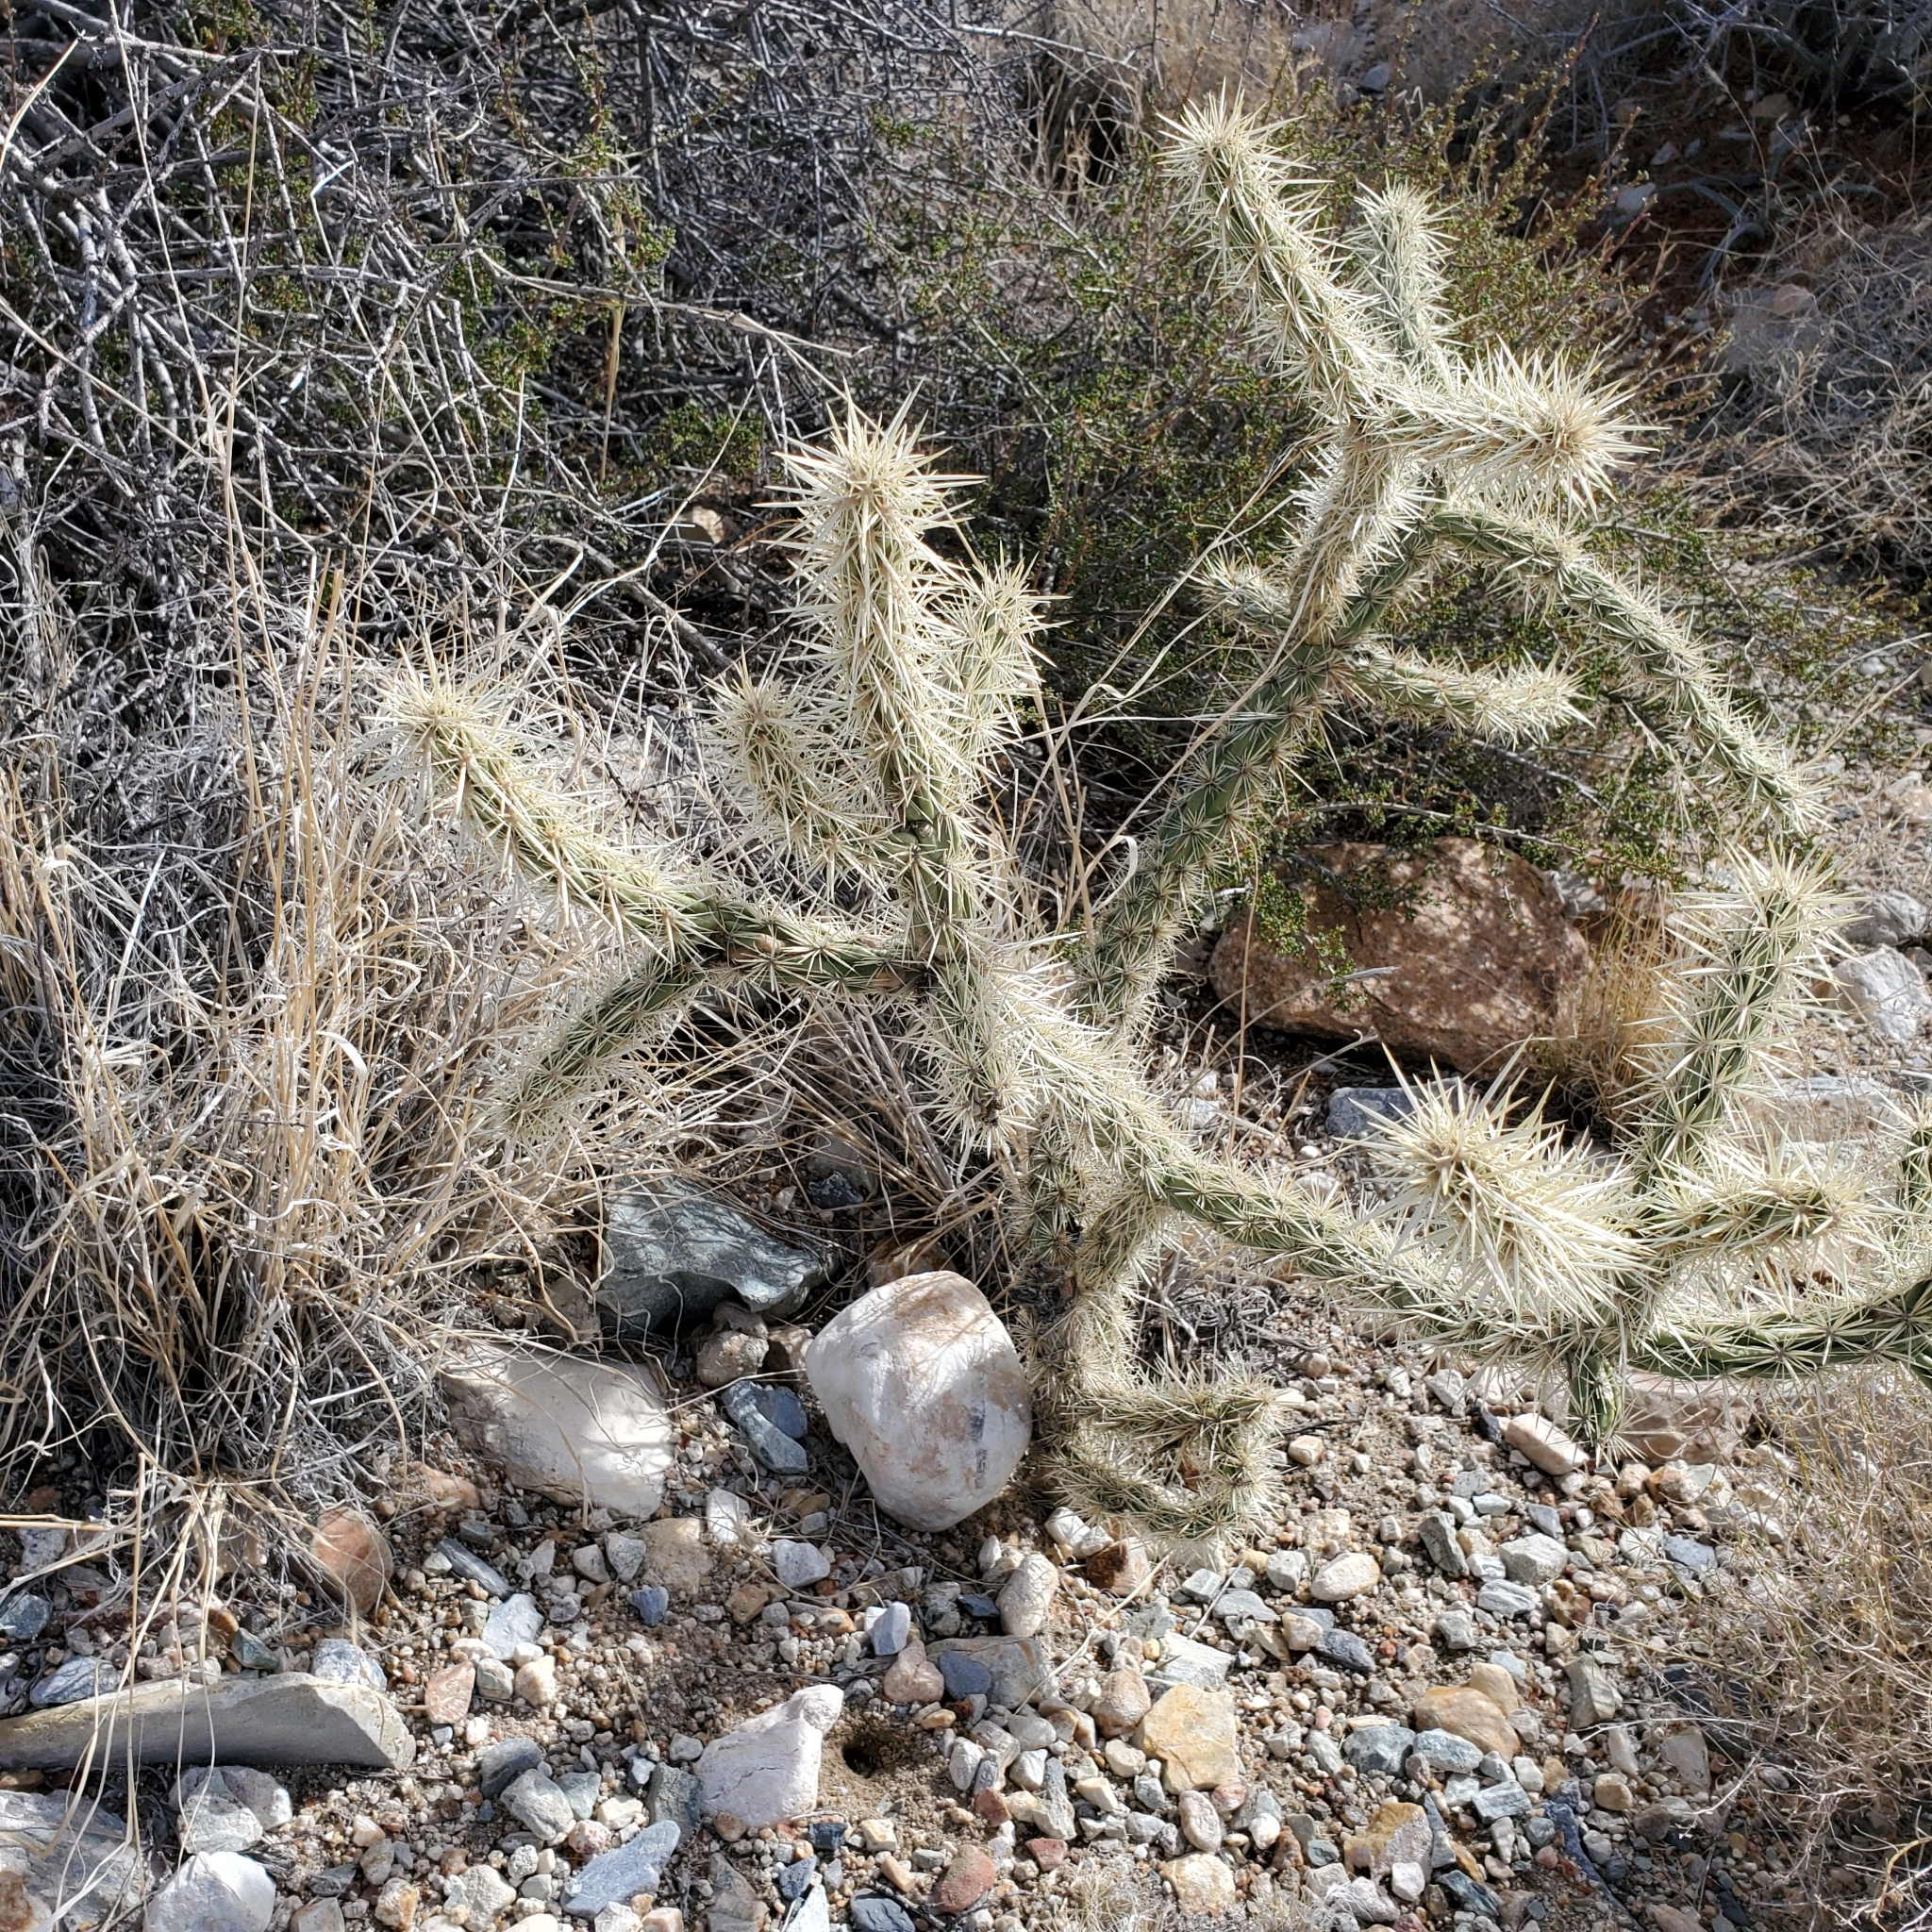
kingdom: Plantae
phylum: Tracheophyta
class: Magnoliopsida
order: Caryophyllales
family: Cactaceae
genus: Cylindropuntia
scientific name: Cylindropuntia acanthocarpa
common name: Buckhorn cholla
